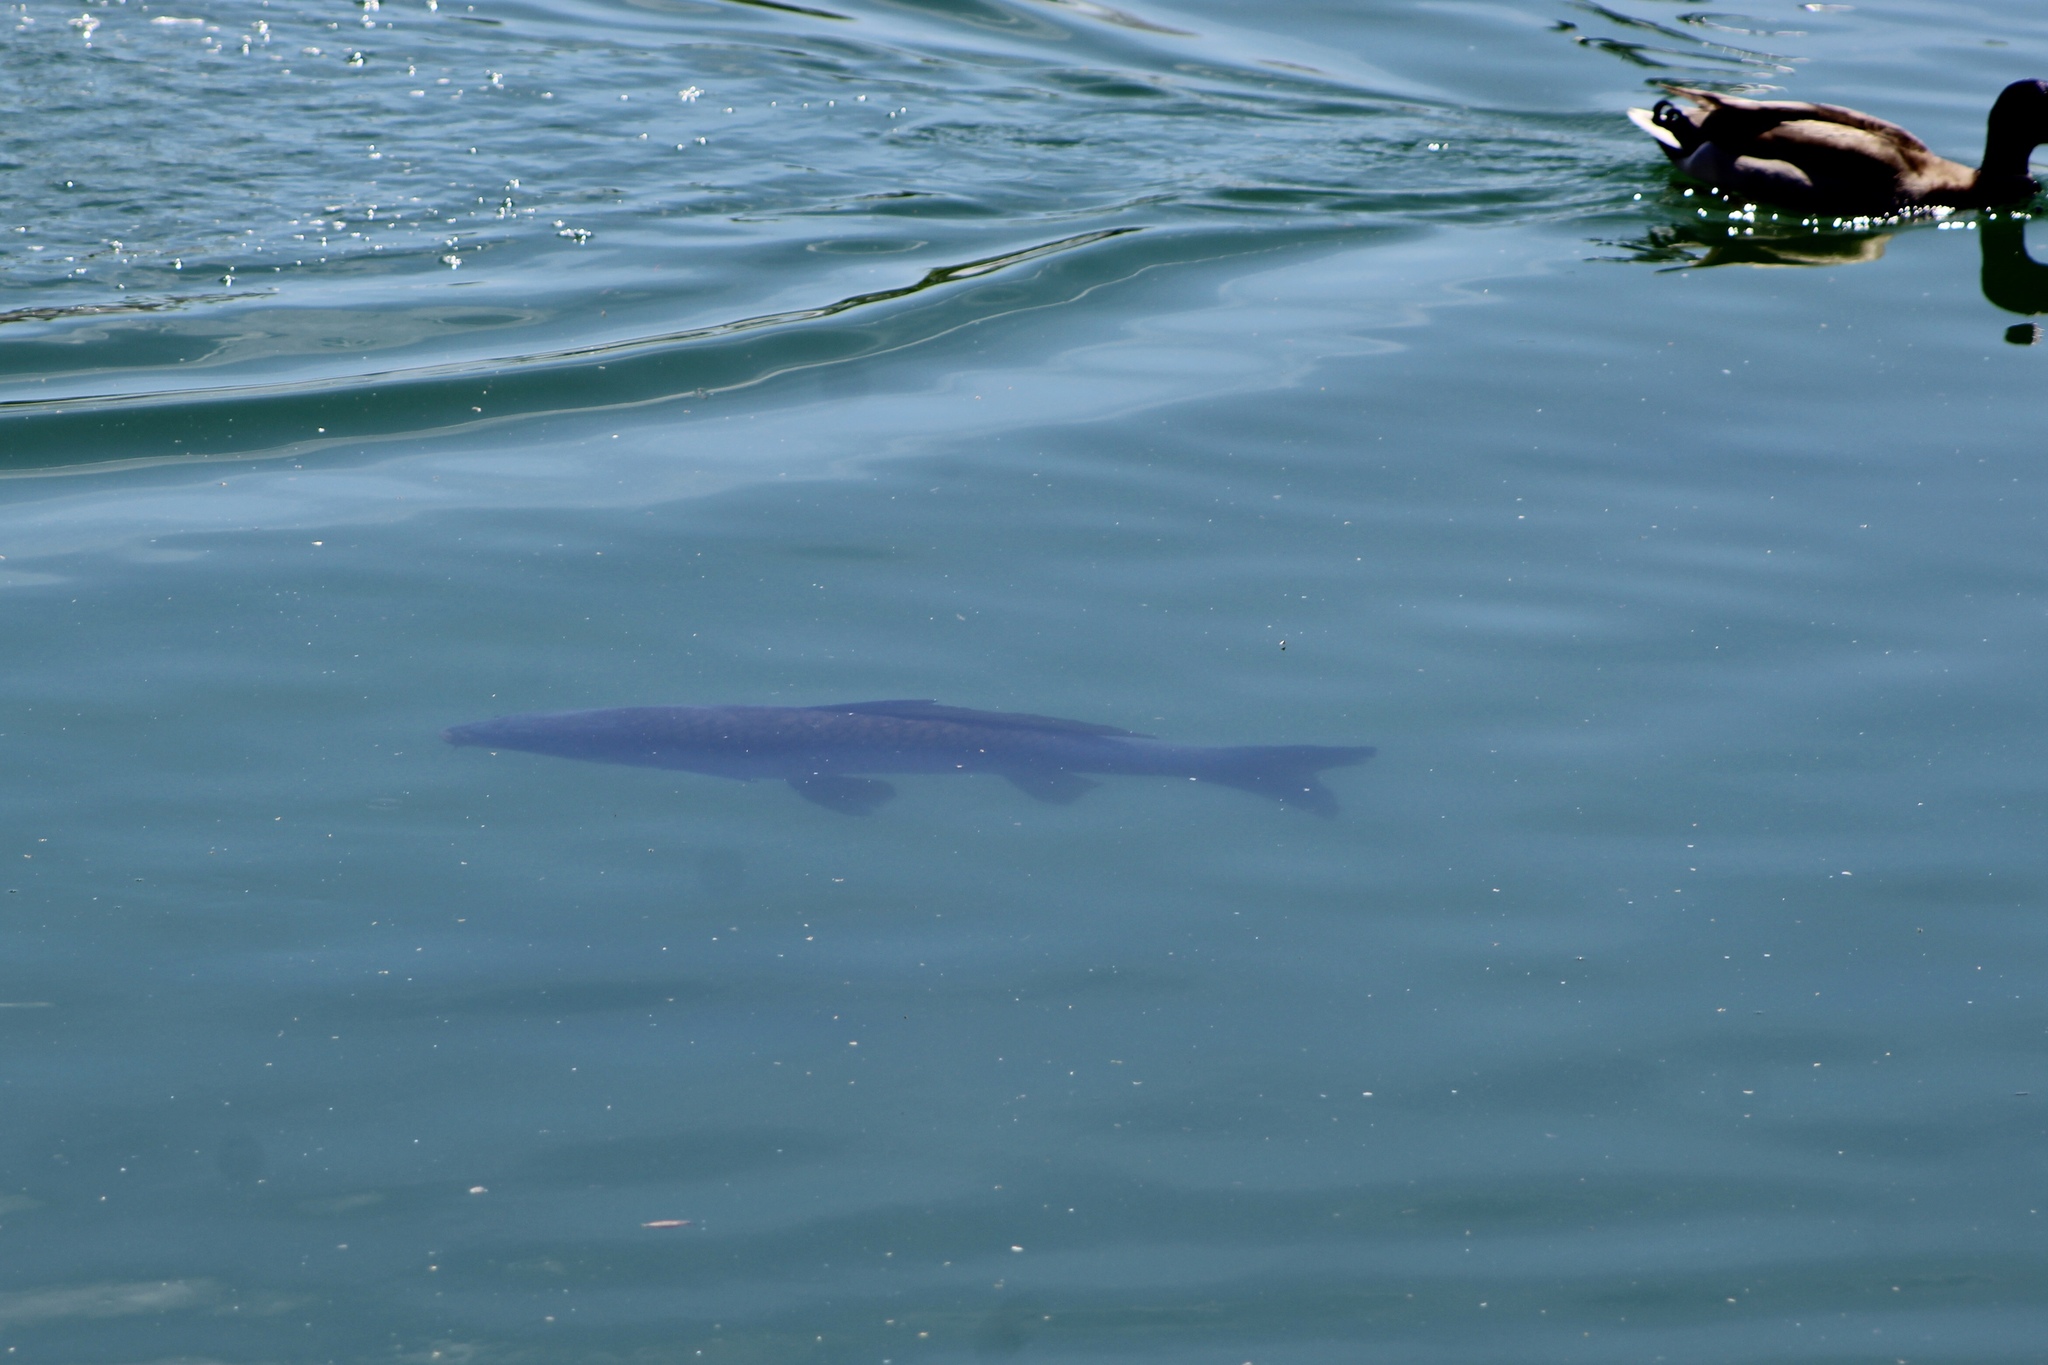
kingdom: Animalia
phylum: Chordata
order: Cypriniformes
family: Cyprinidae
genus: Cyprinus
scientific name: Cyprinus carpio
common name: Common carp
